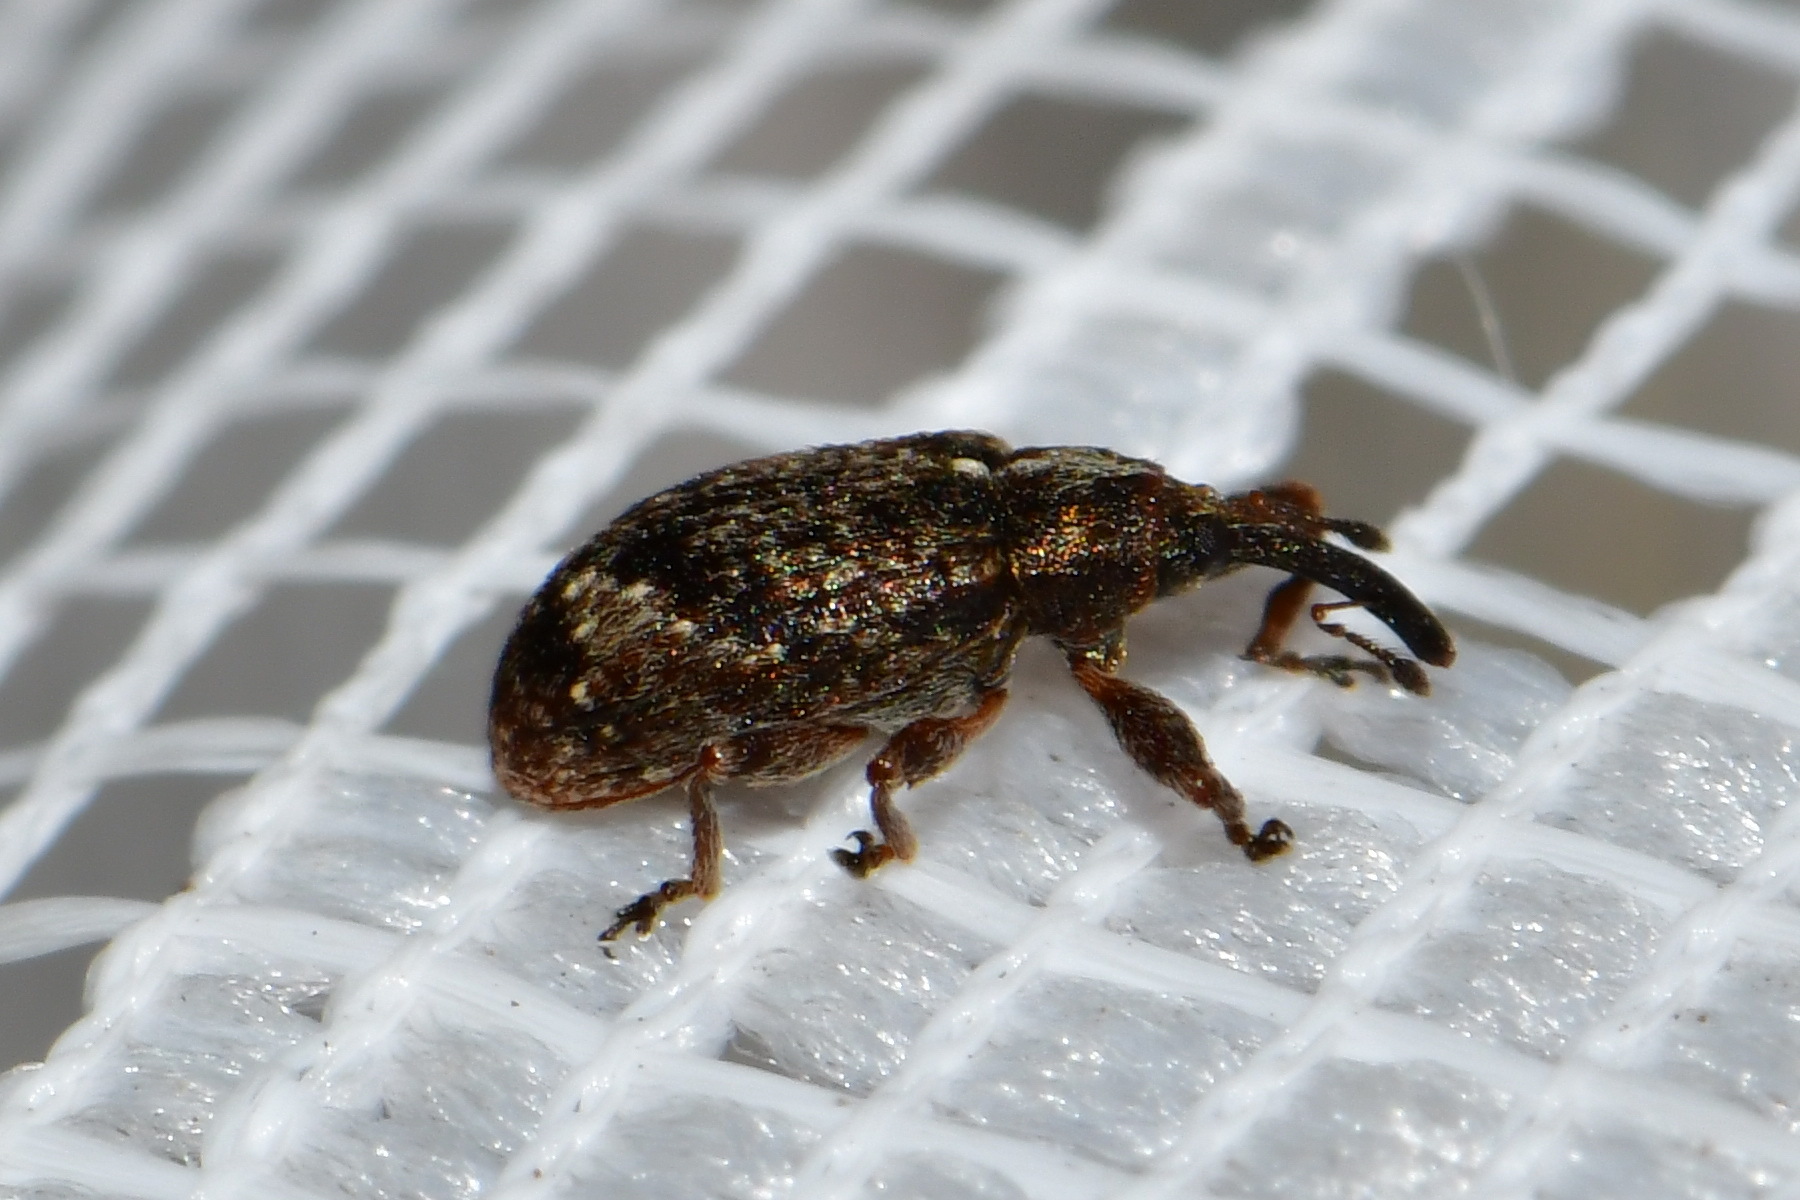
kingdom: Animalia
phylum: Arthropoda
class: Insecta
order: Coleoptera
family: Curculionidae
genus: Anthonomus
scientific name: Anthonomus pomorum
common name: Apple-blossom weevil
